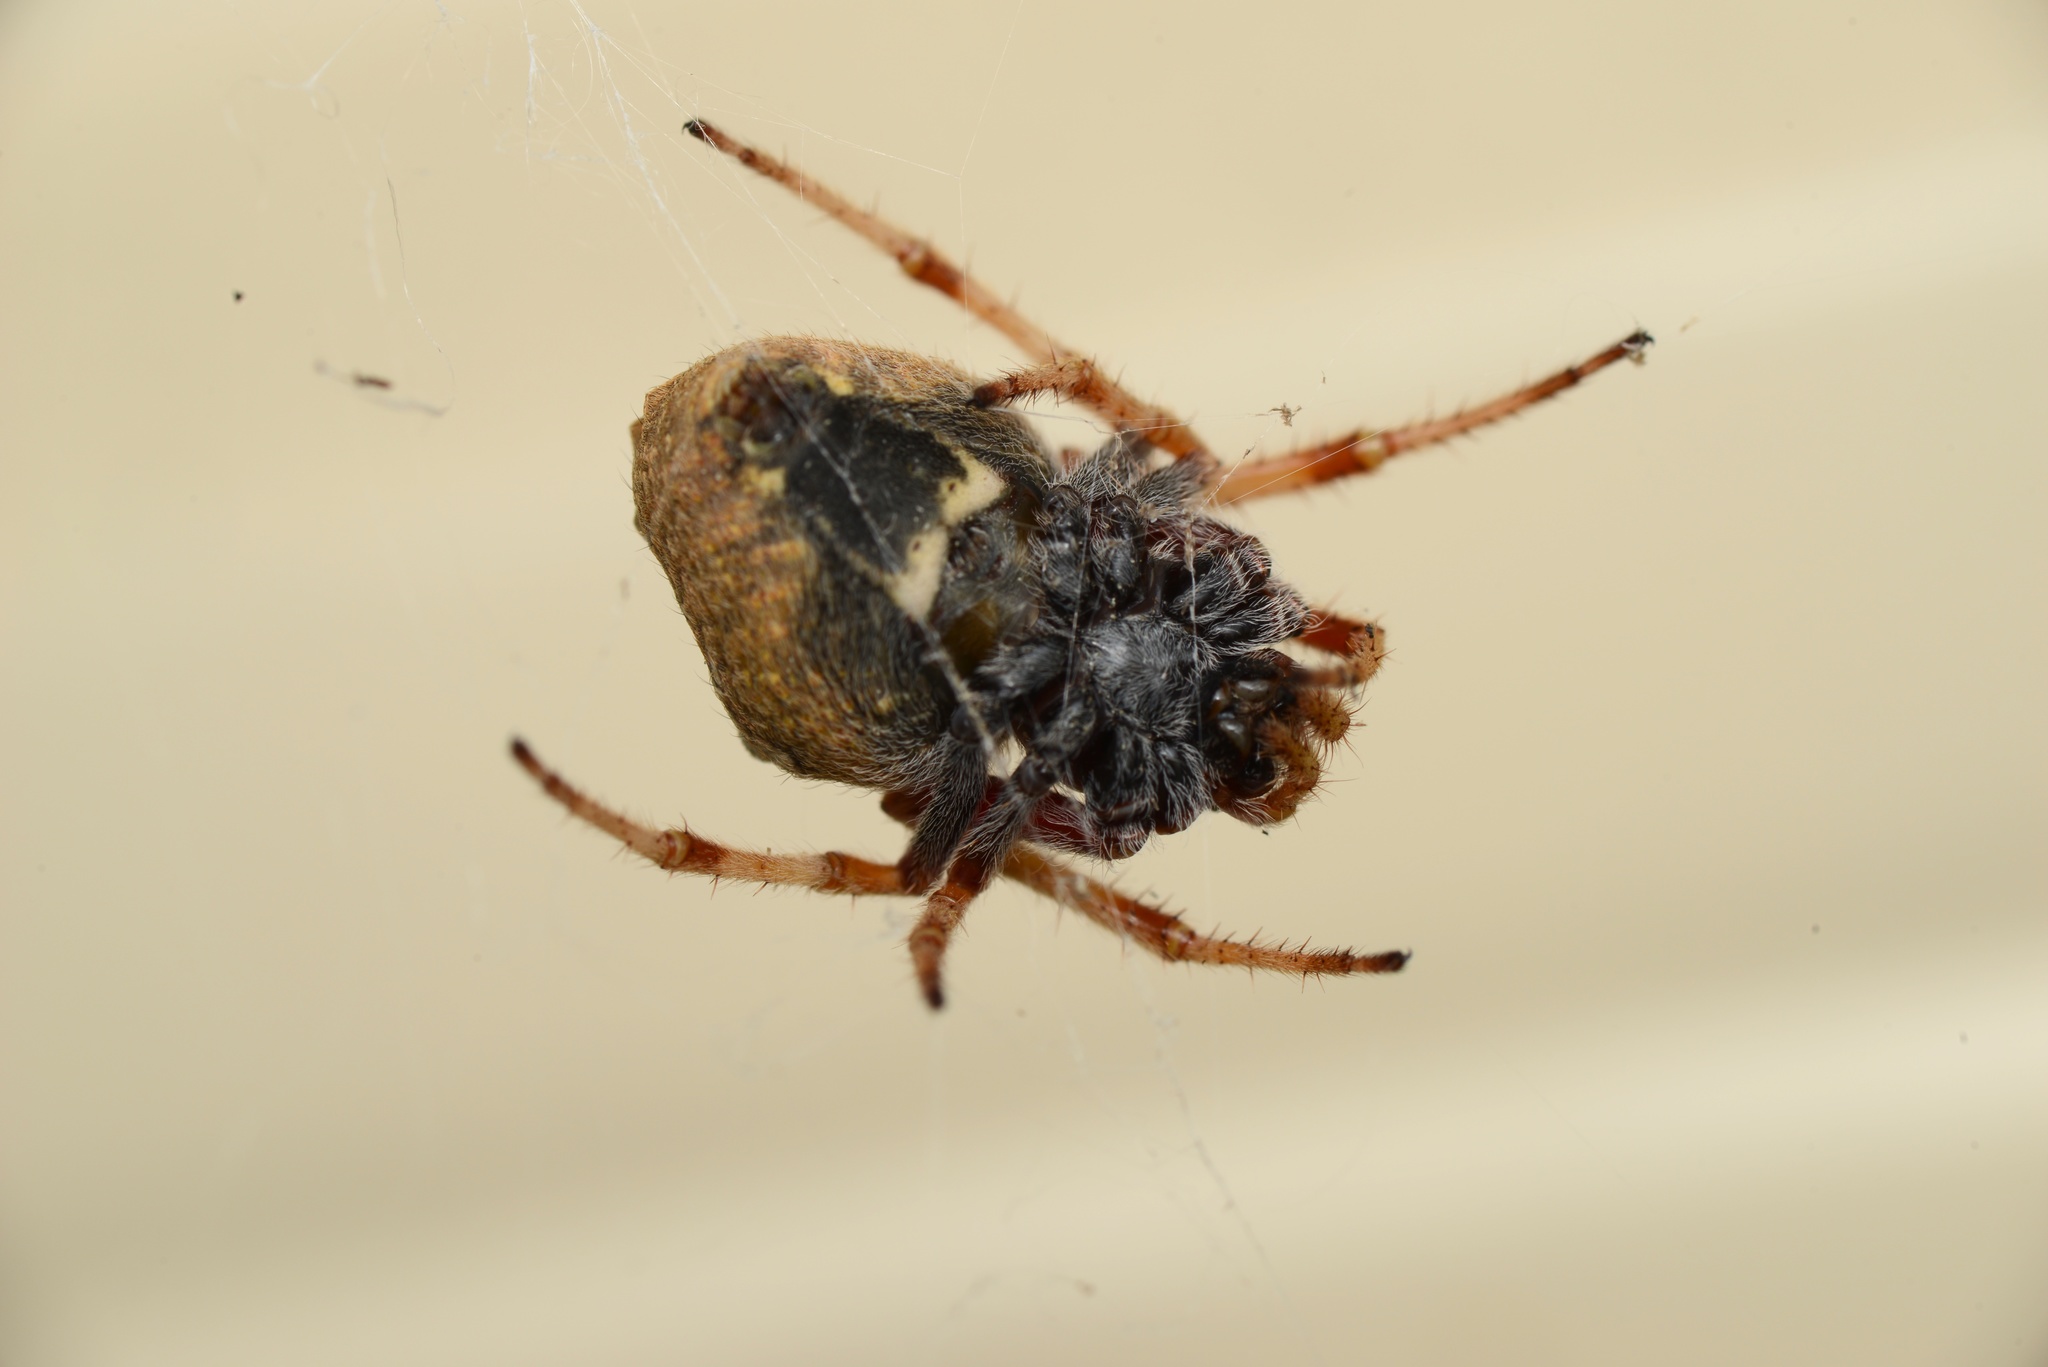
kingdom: Animalia
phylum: Arthropoda
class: Arachnida
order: Araneae
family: Araneidae
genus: Eriophora
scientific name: Eriophora pustulosa
